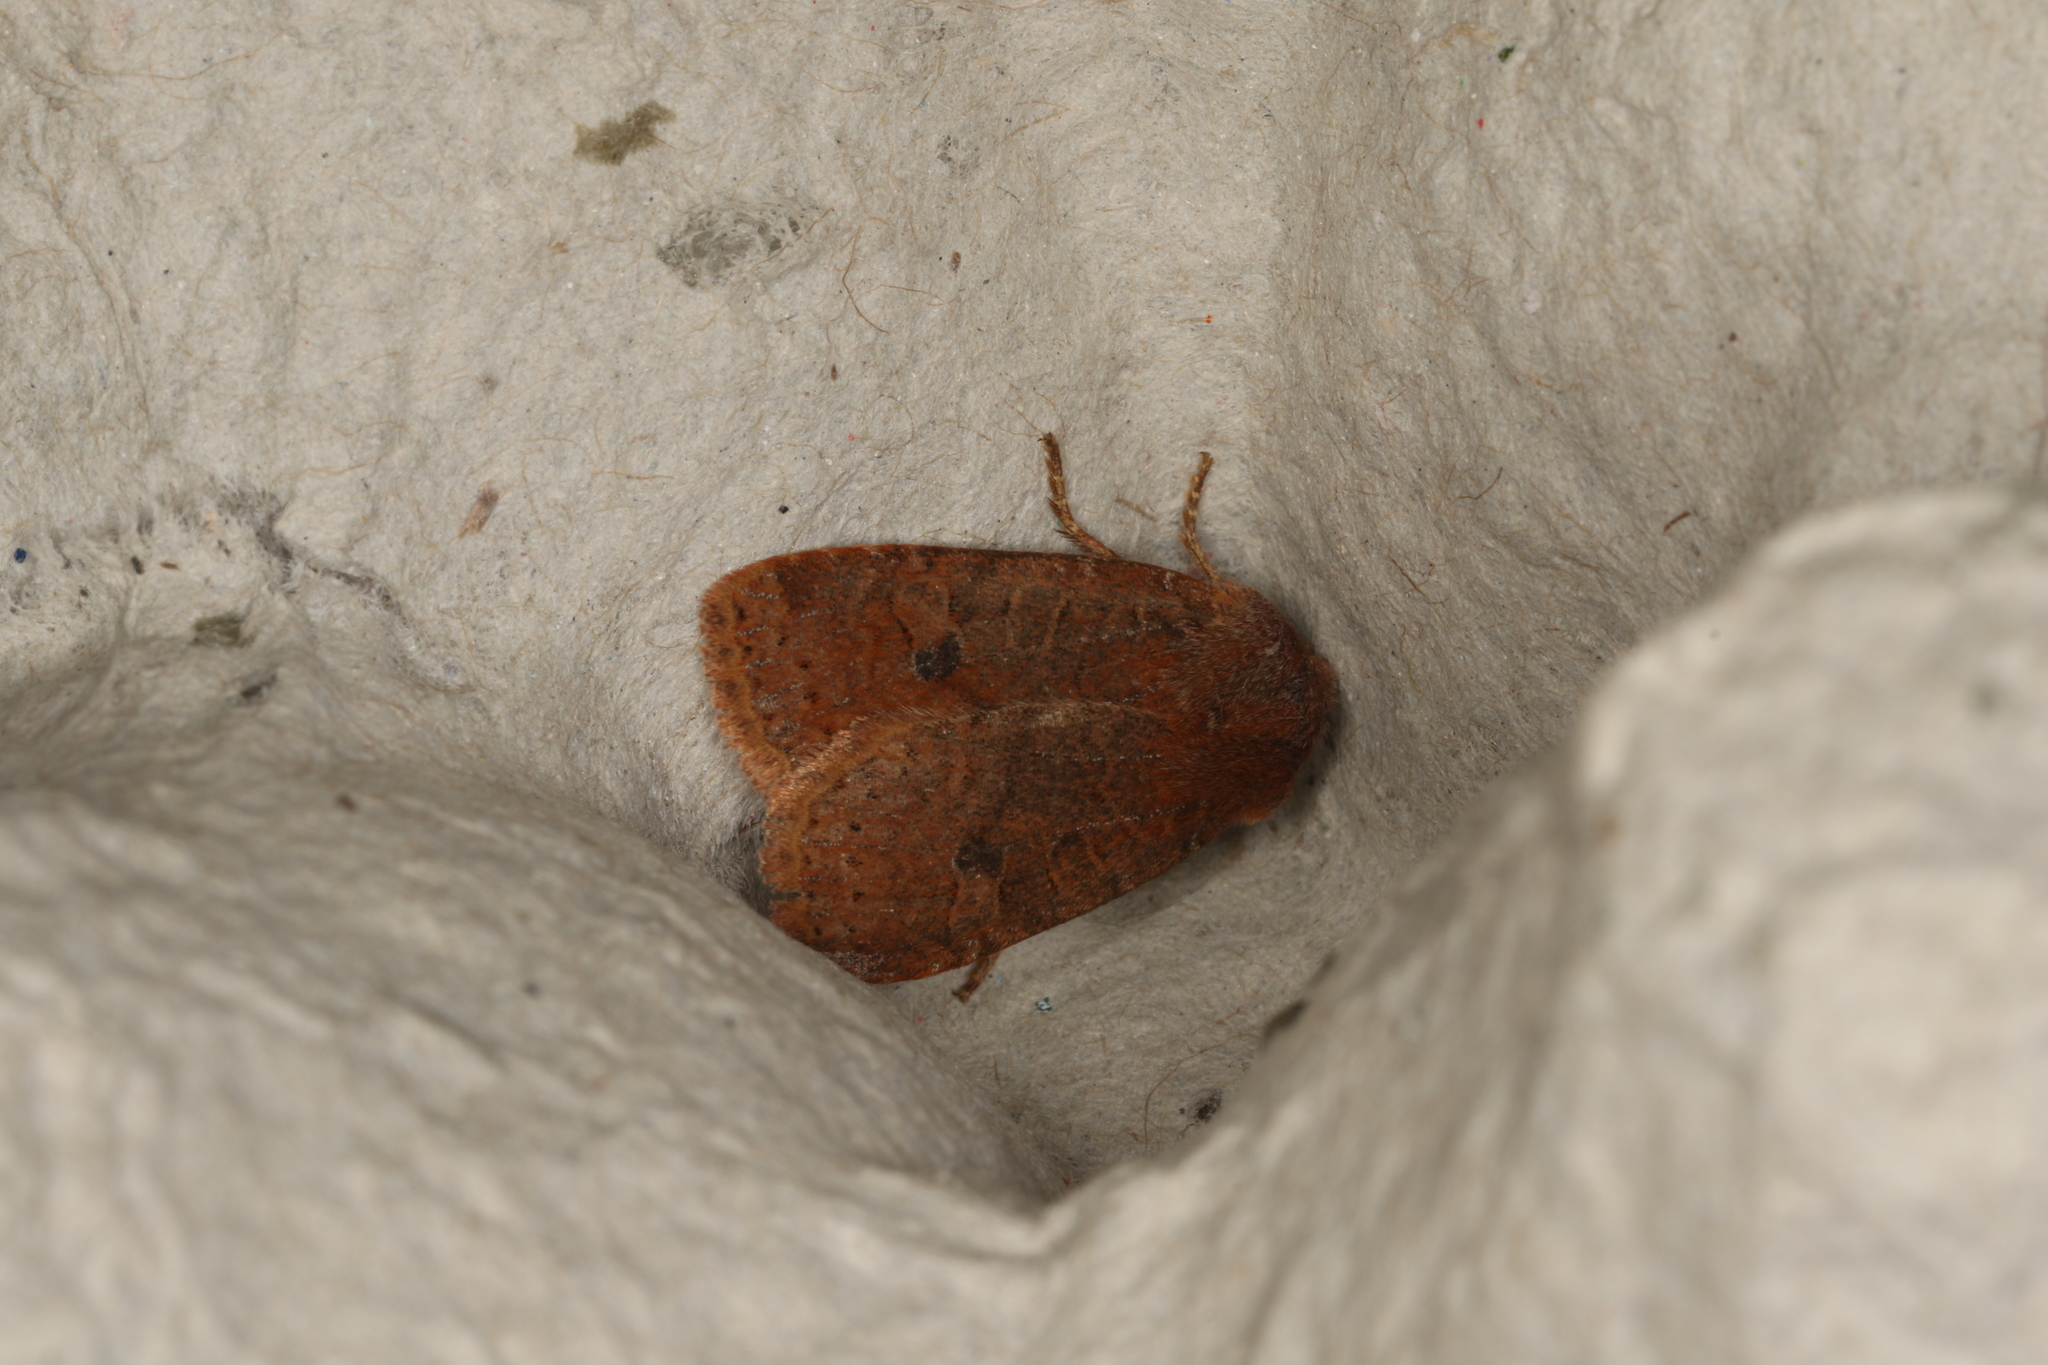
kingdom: Animalia
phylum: Arthropoda
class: Insecta
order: Lepidoptera
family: Noctuidae
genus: Conistra
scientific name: Conistra vaccinii
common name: Chestnut
